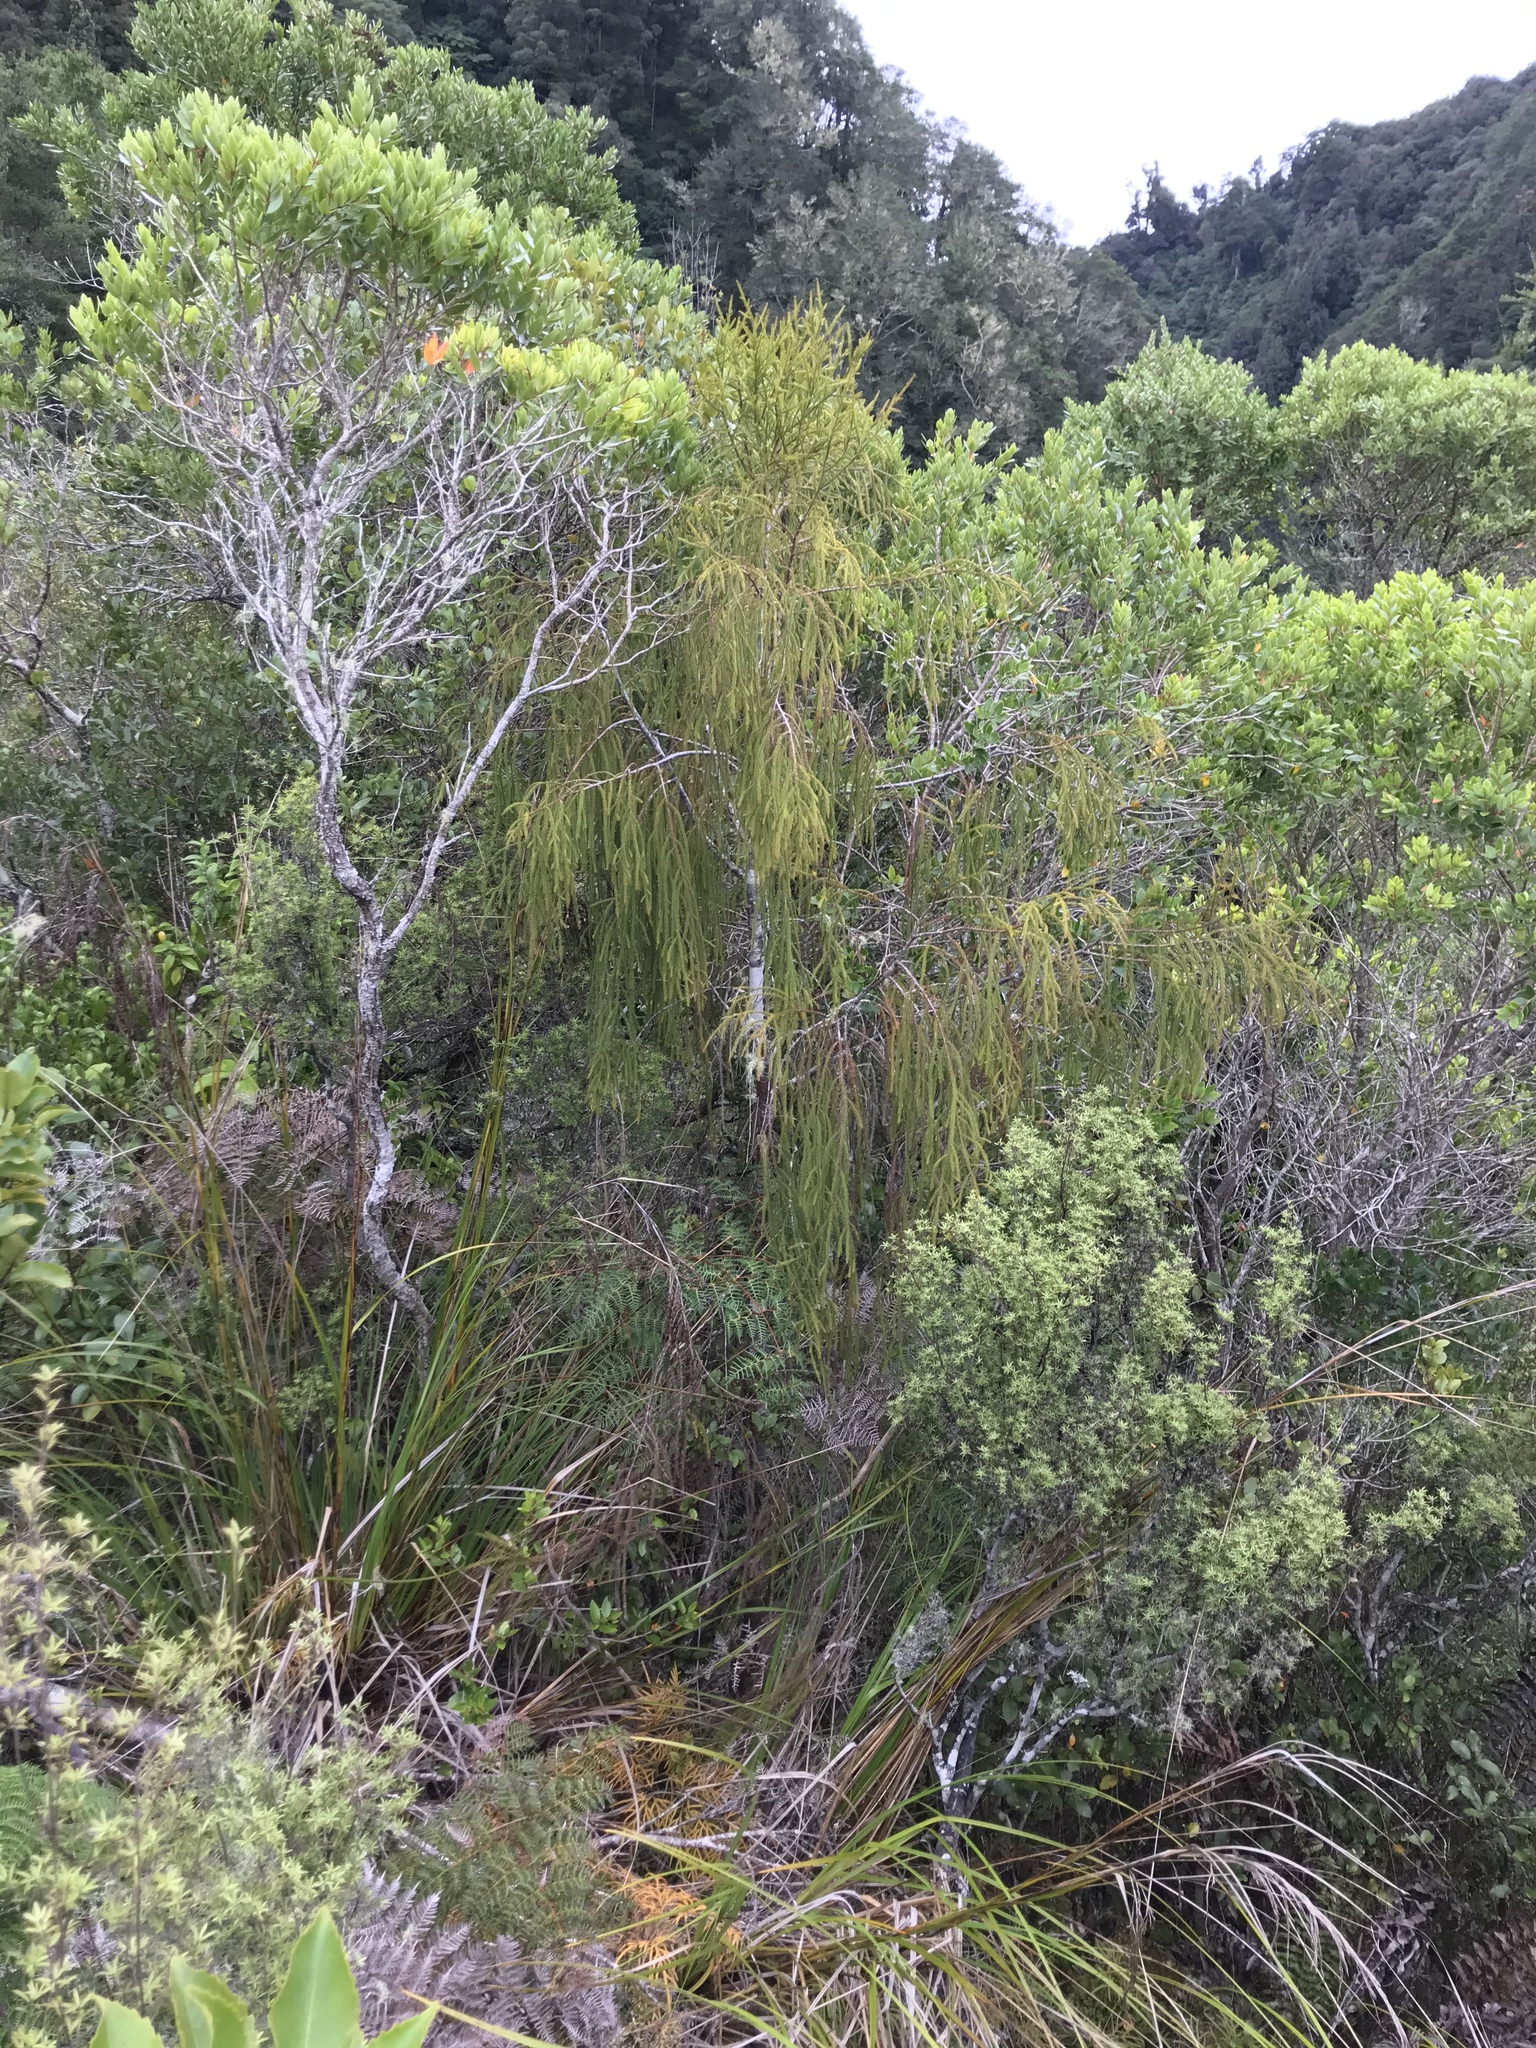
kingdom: Plantae
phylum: Tracheophyta
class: Pinopsida
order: Pinales
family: Podocarpaceae
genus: Dacrydium
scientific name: Dacrydium cupressinum
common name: Red pine
